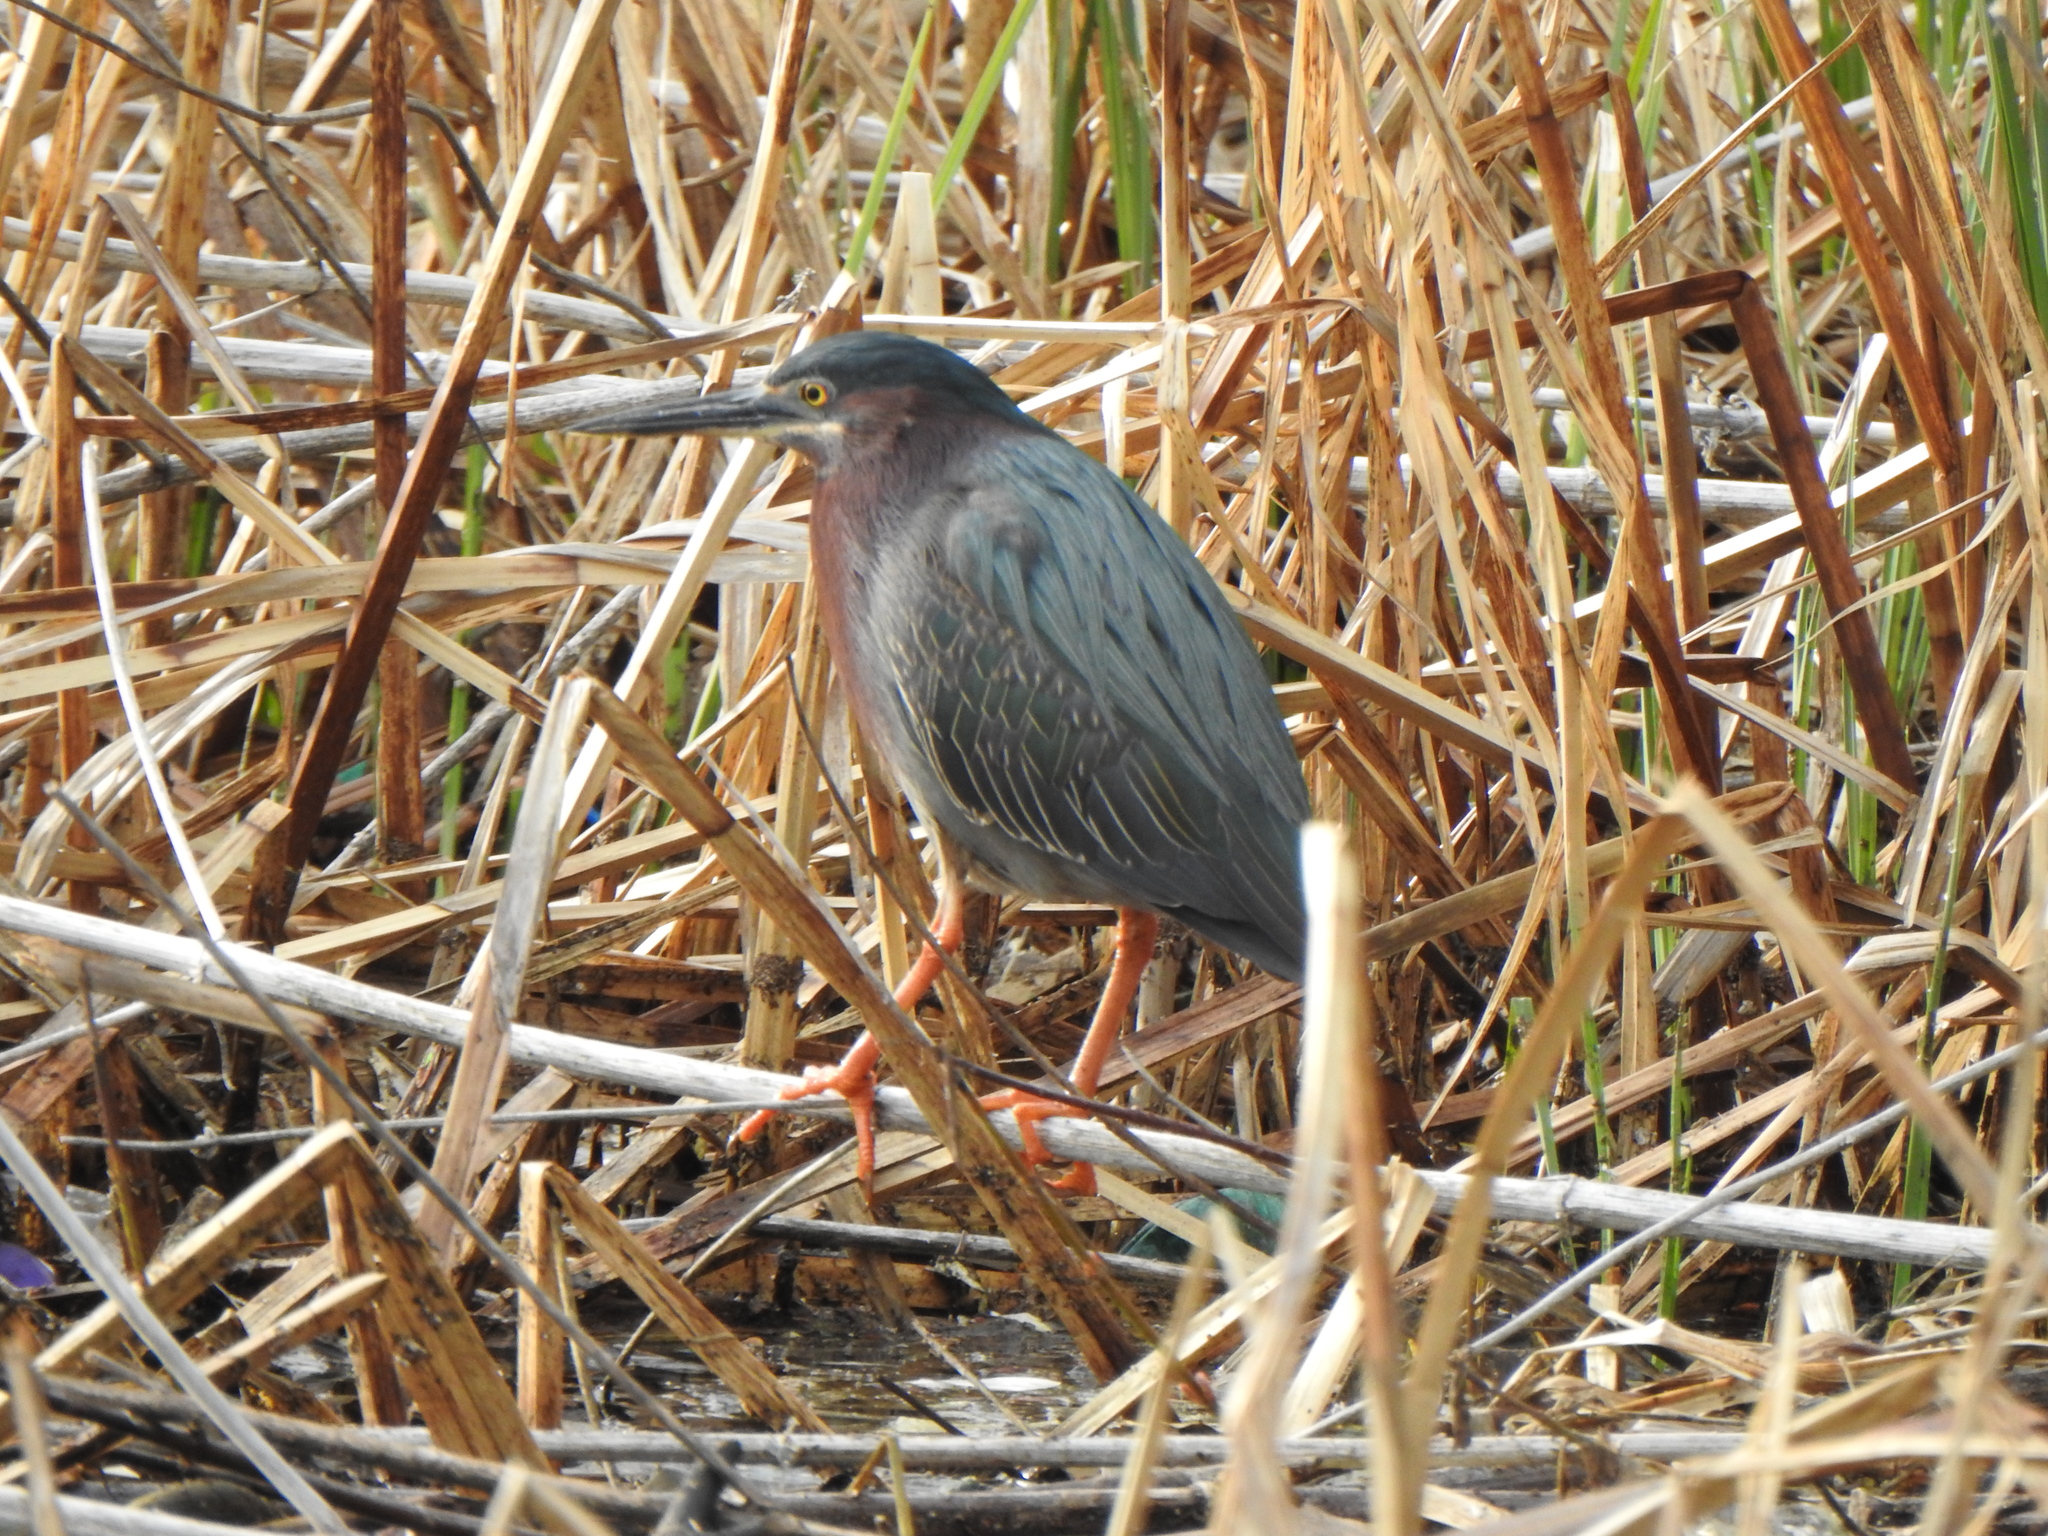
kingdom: Animalia
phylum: Chordata
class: Aves
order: Pelecaniformes
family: Ardeidae
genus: Butorides
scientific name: Butorides virescens
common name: Green heron
